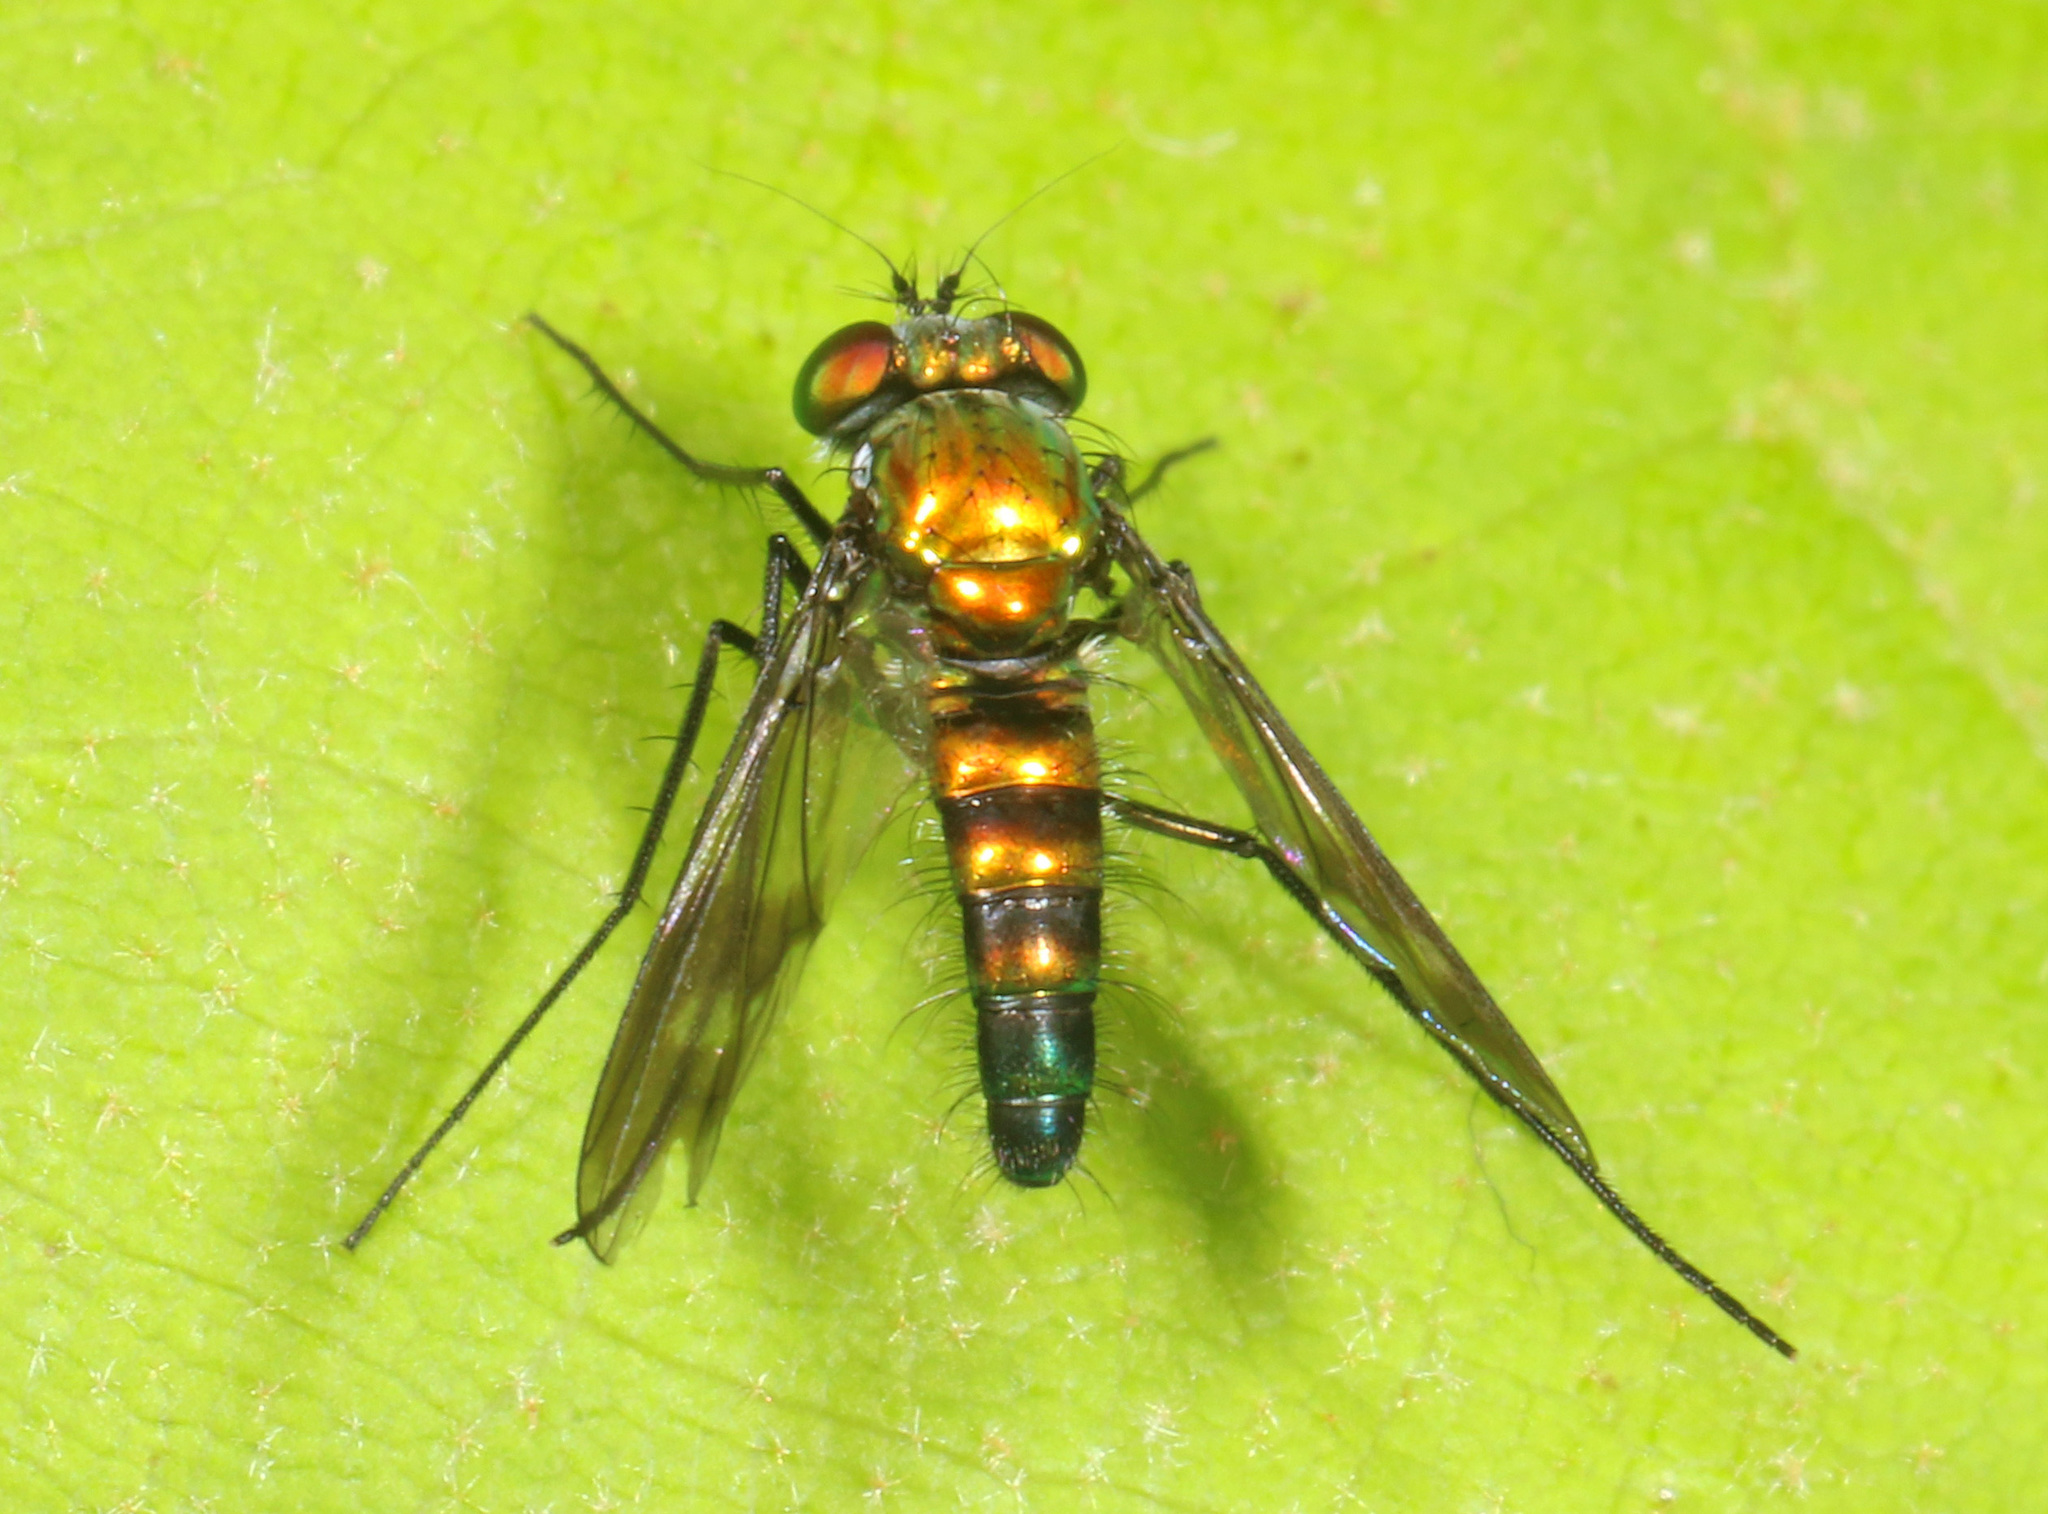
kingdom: Animalia
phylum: Arthropoda
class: Insecta
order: Diptera
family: Dolichopodidae
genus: Condylostylus
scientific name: Condylostylus patibulatus
